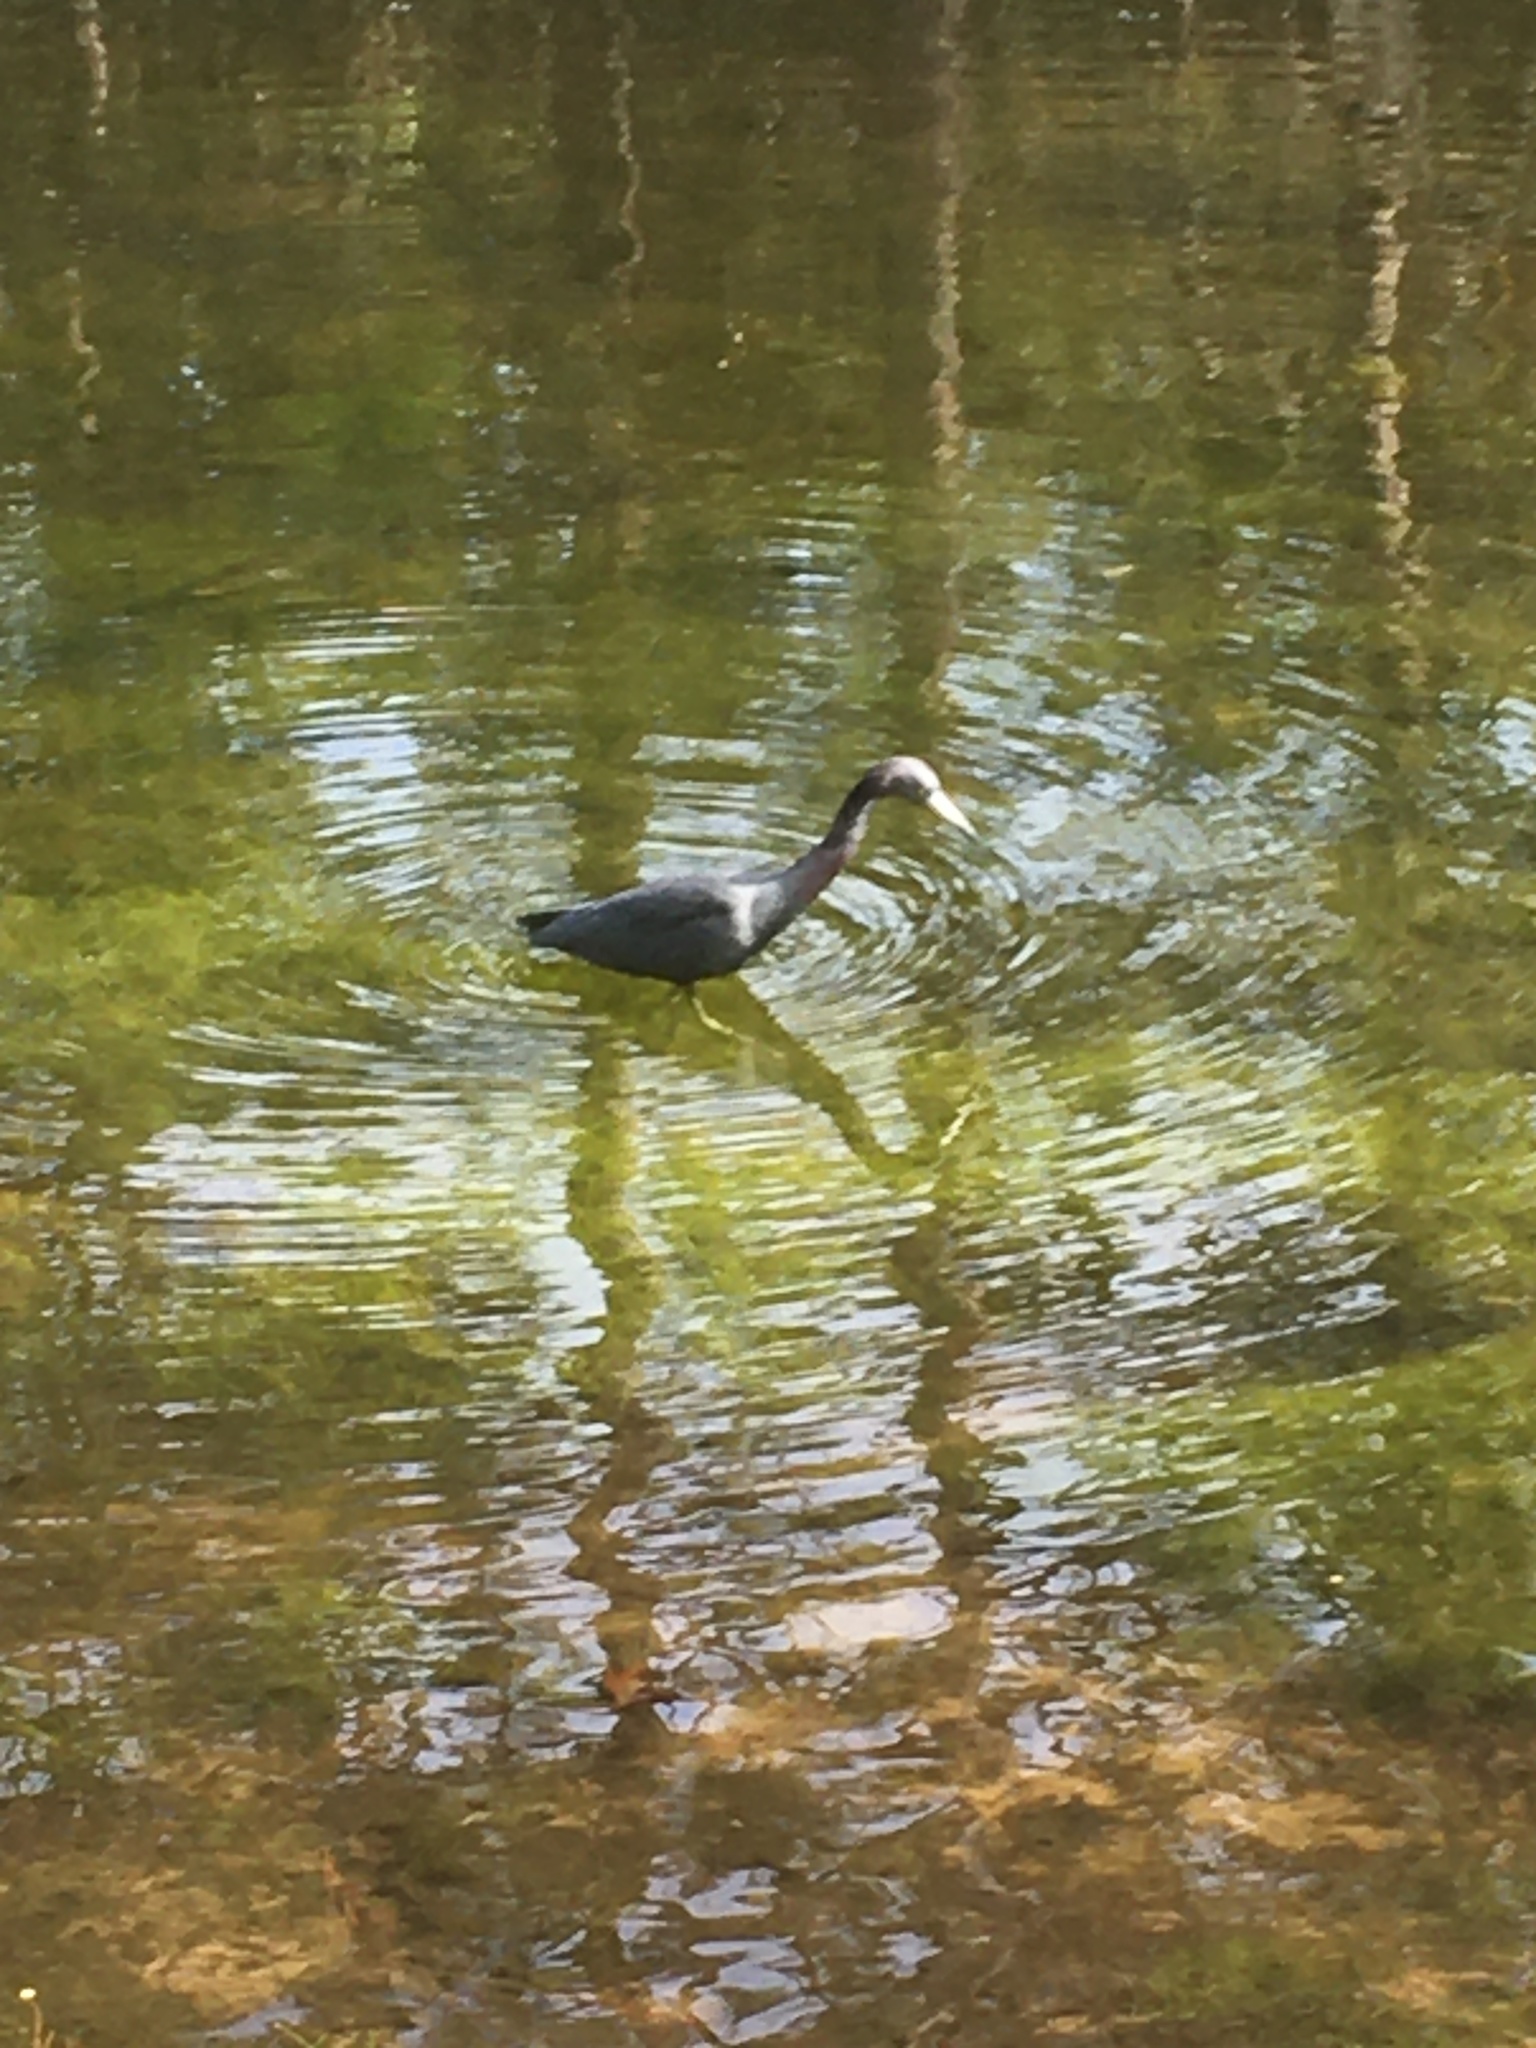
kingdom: Animalia
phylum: Chordata
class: Aves
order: Pelecaniformes
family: Ardeidae
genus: Egretta
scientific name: Egretta caerulea
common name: Little blue heron
